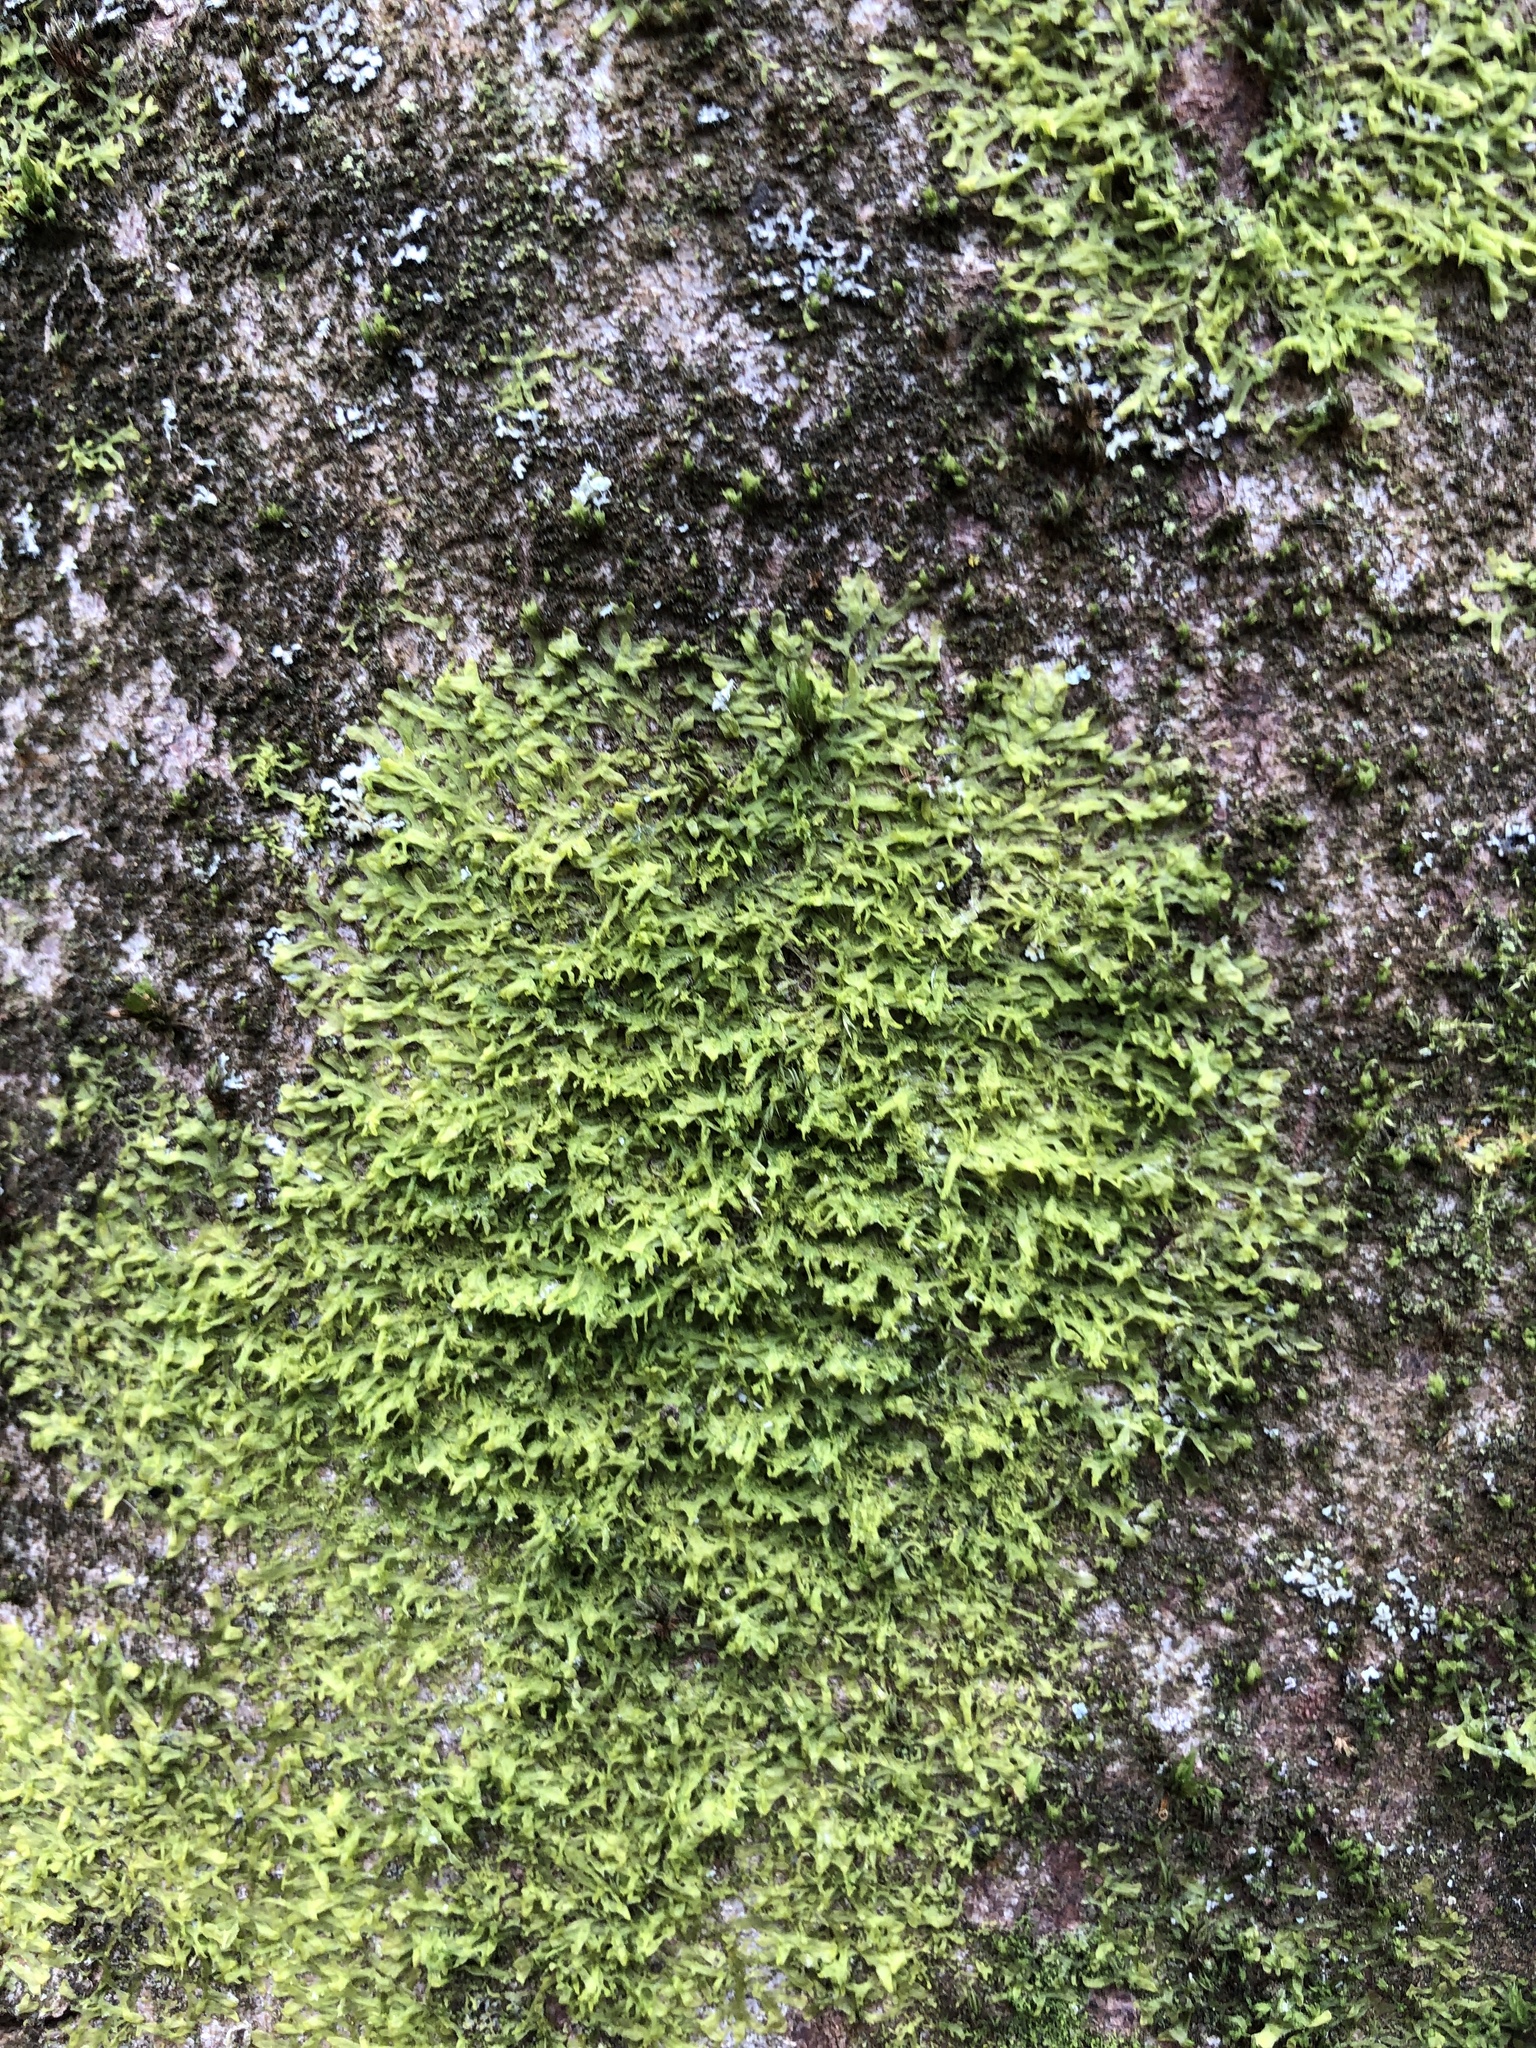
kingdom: Plantae
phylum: Marchantiophyta
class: Jungermanniopsida
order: Metzgeriales
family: Metzgeriaceae
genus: Metzgeria
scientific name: Metzgeria consanguinea
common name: Whiskered veilwort
